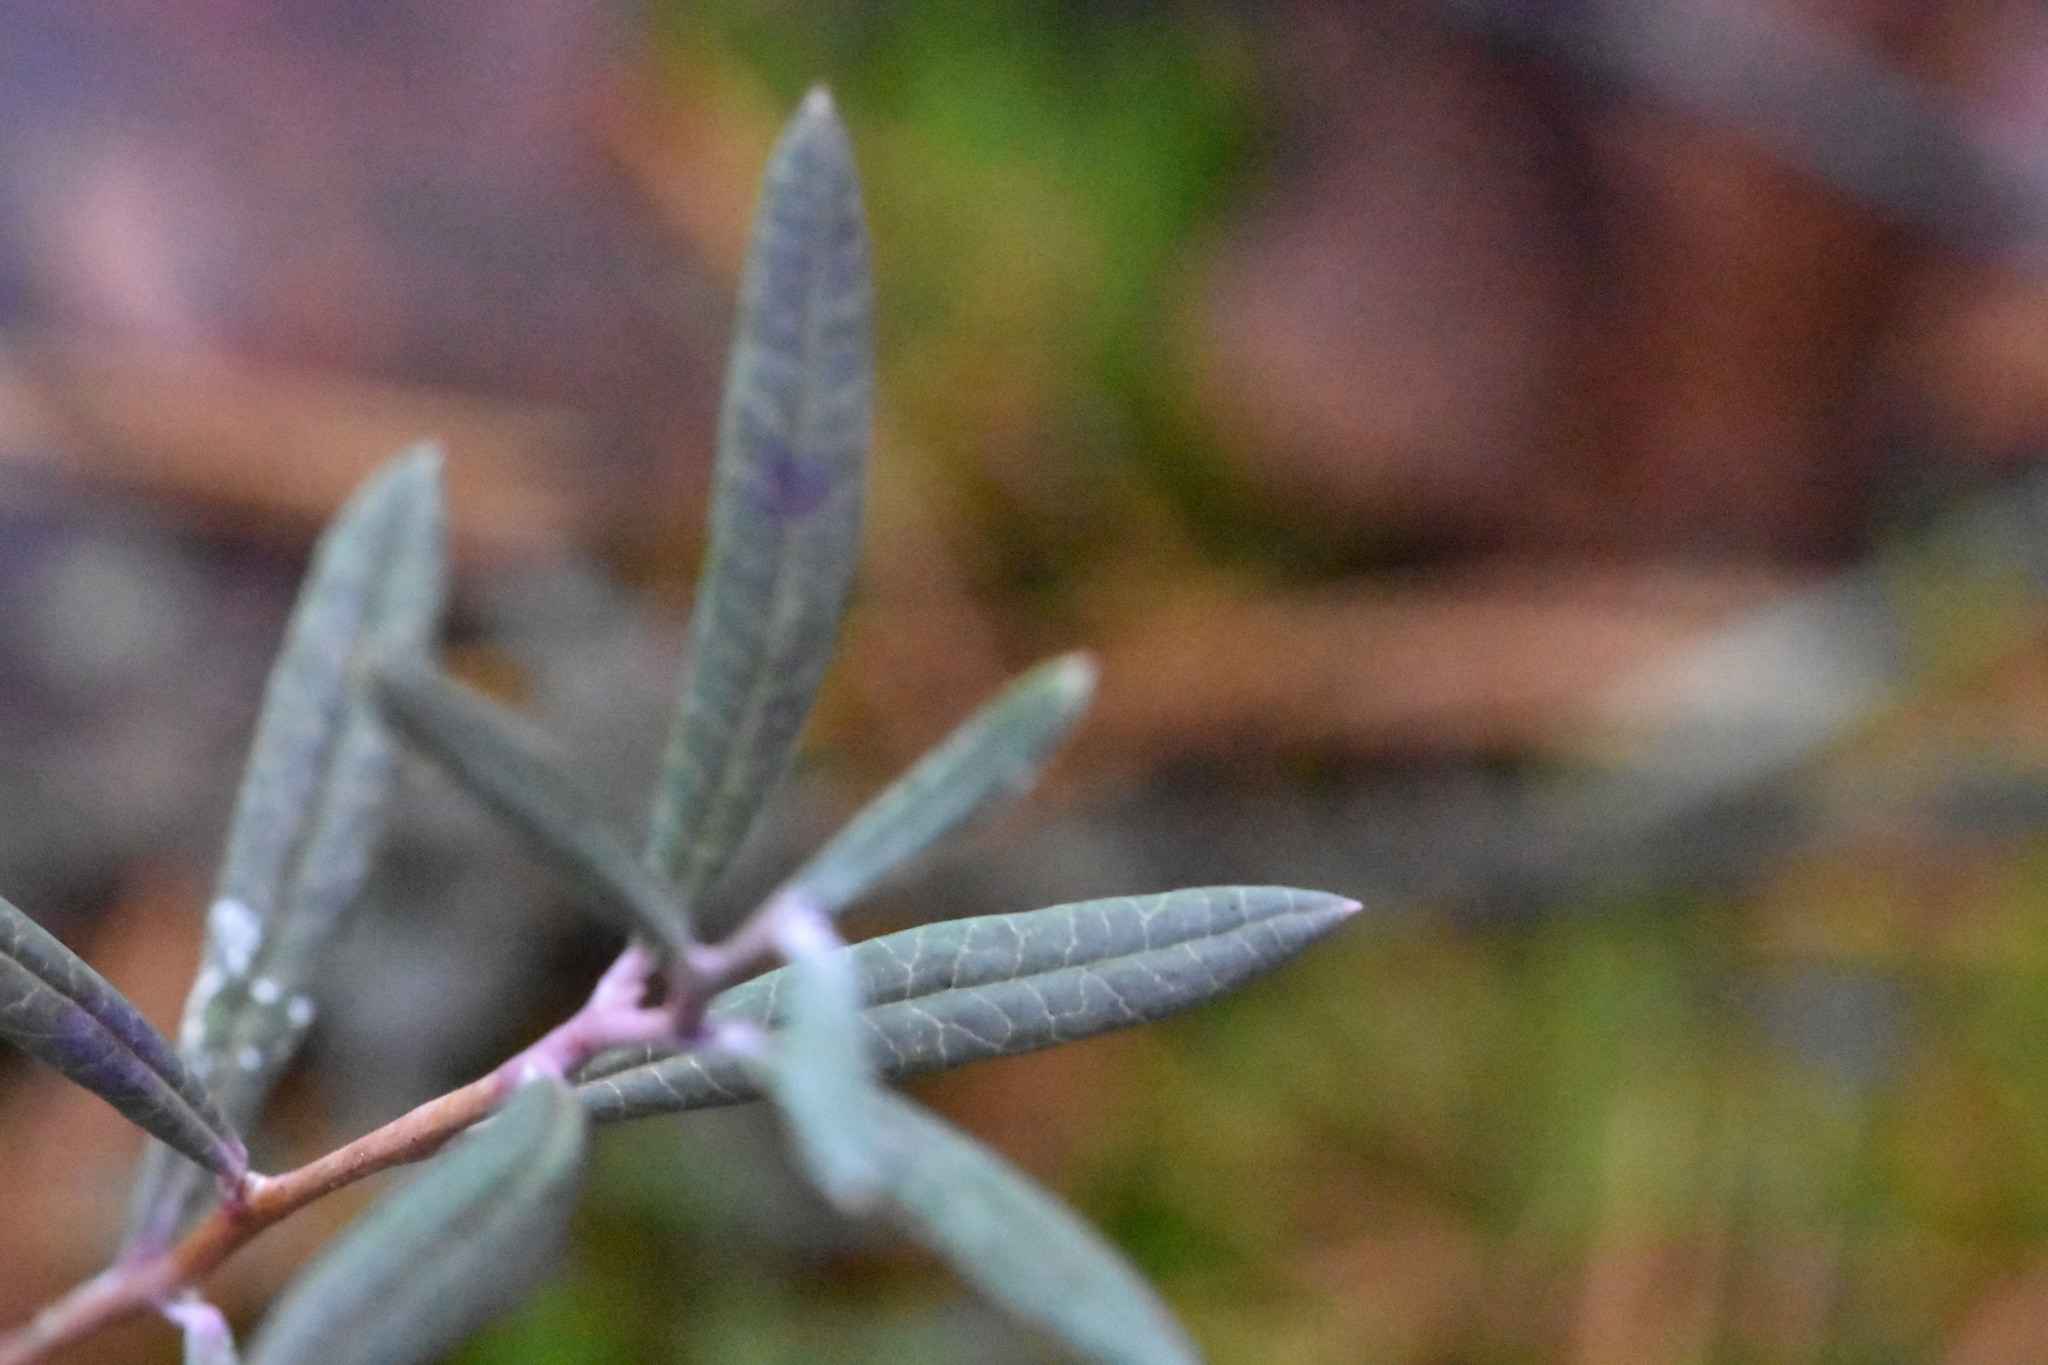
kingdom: Plantae
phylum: Tracheophyta
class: Magnoliopsida
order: Ericales
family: Ericaceae
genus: Andromeda
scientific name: Andromeda polifolia
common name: Bog-rosemary
